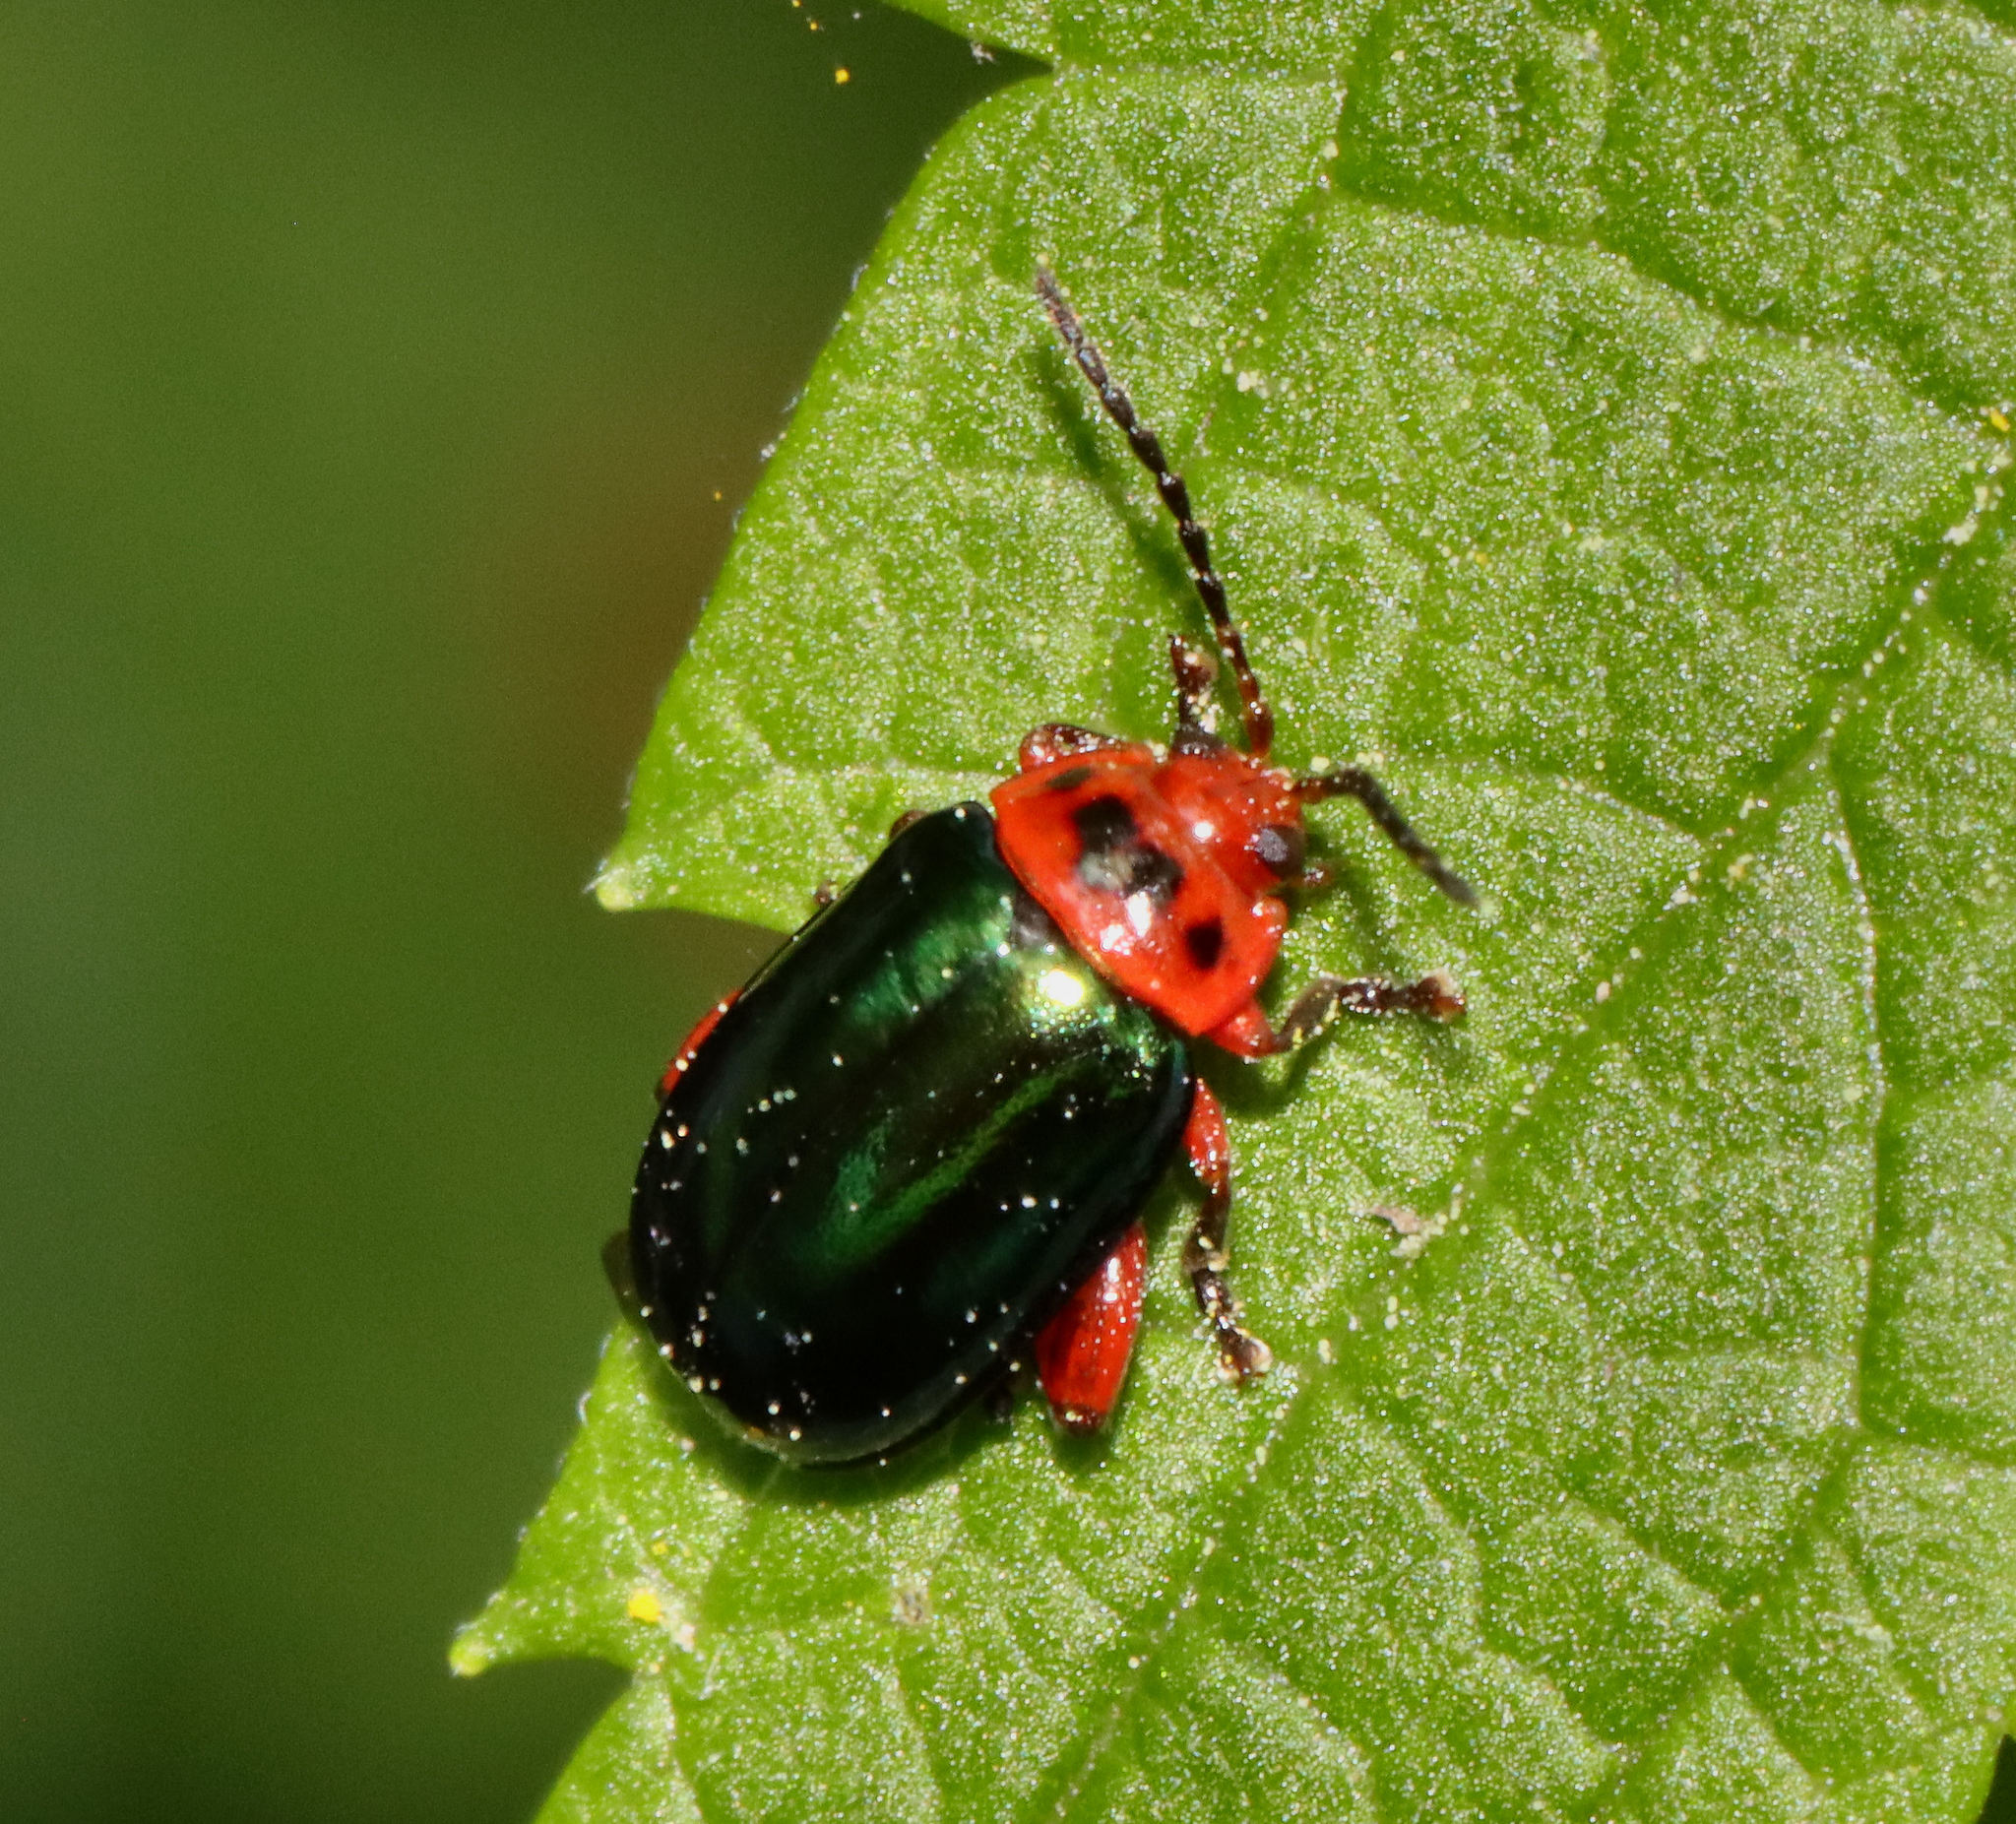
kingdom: Animalia
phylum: Arthropoda
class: Insecta
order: Coleoptera
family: Chrysomelidae
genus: Kuschelina
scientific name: Kuschelina gibbitarsa
